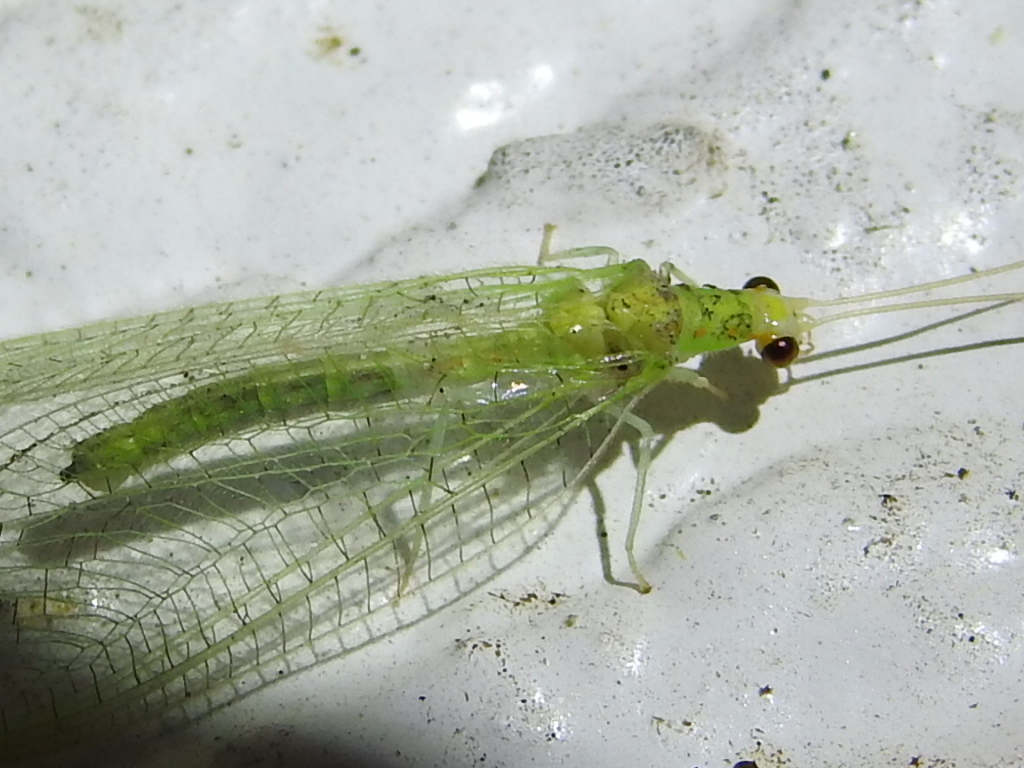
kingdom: Animalia
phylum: Arthropoda
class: Insecta
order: Neuroptera
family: Chrysopidae
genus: Chrysopa
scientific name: Chrysopa quadripunctata
